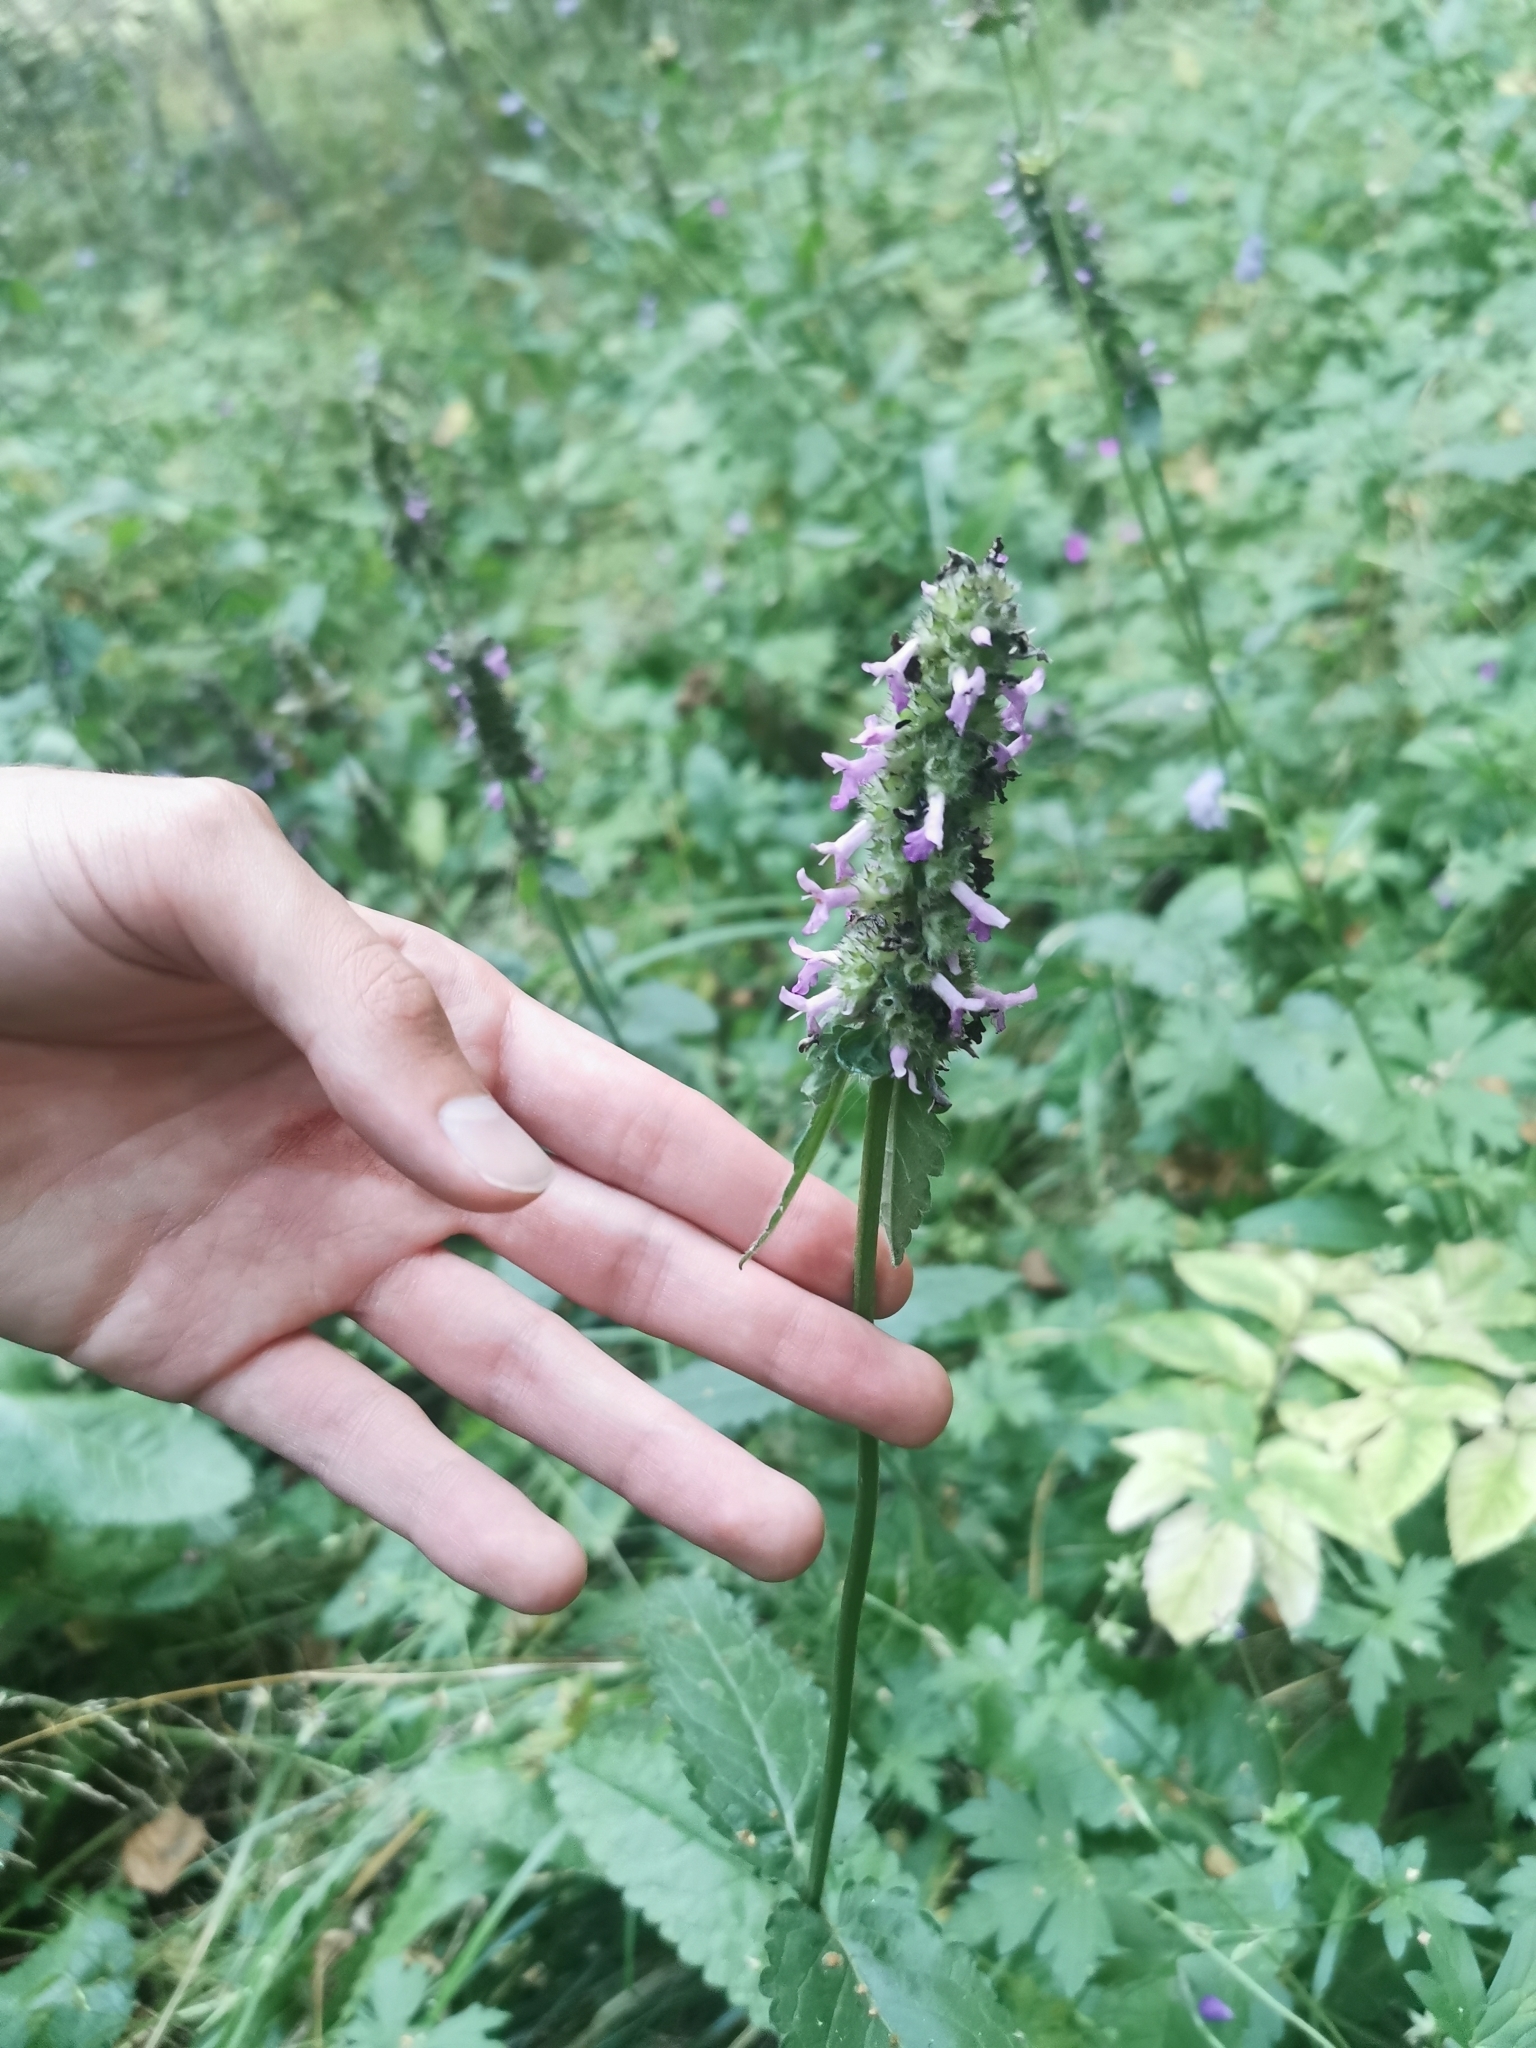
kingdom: Plantae
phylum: Tracheophyta
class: Magnoliopsida
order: Lamiales
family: Lamiaceae
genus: Betonica
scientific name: Betonica officinalis
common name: Bishop's-wort
